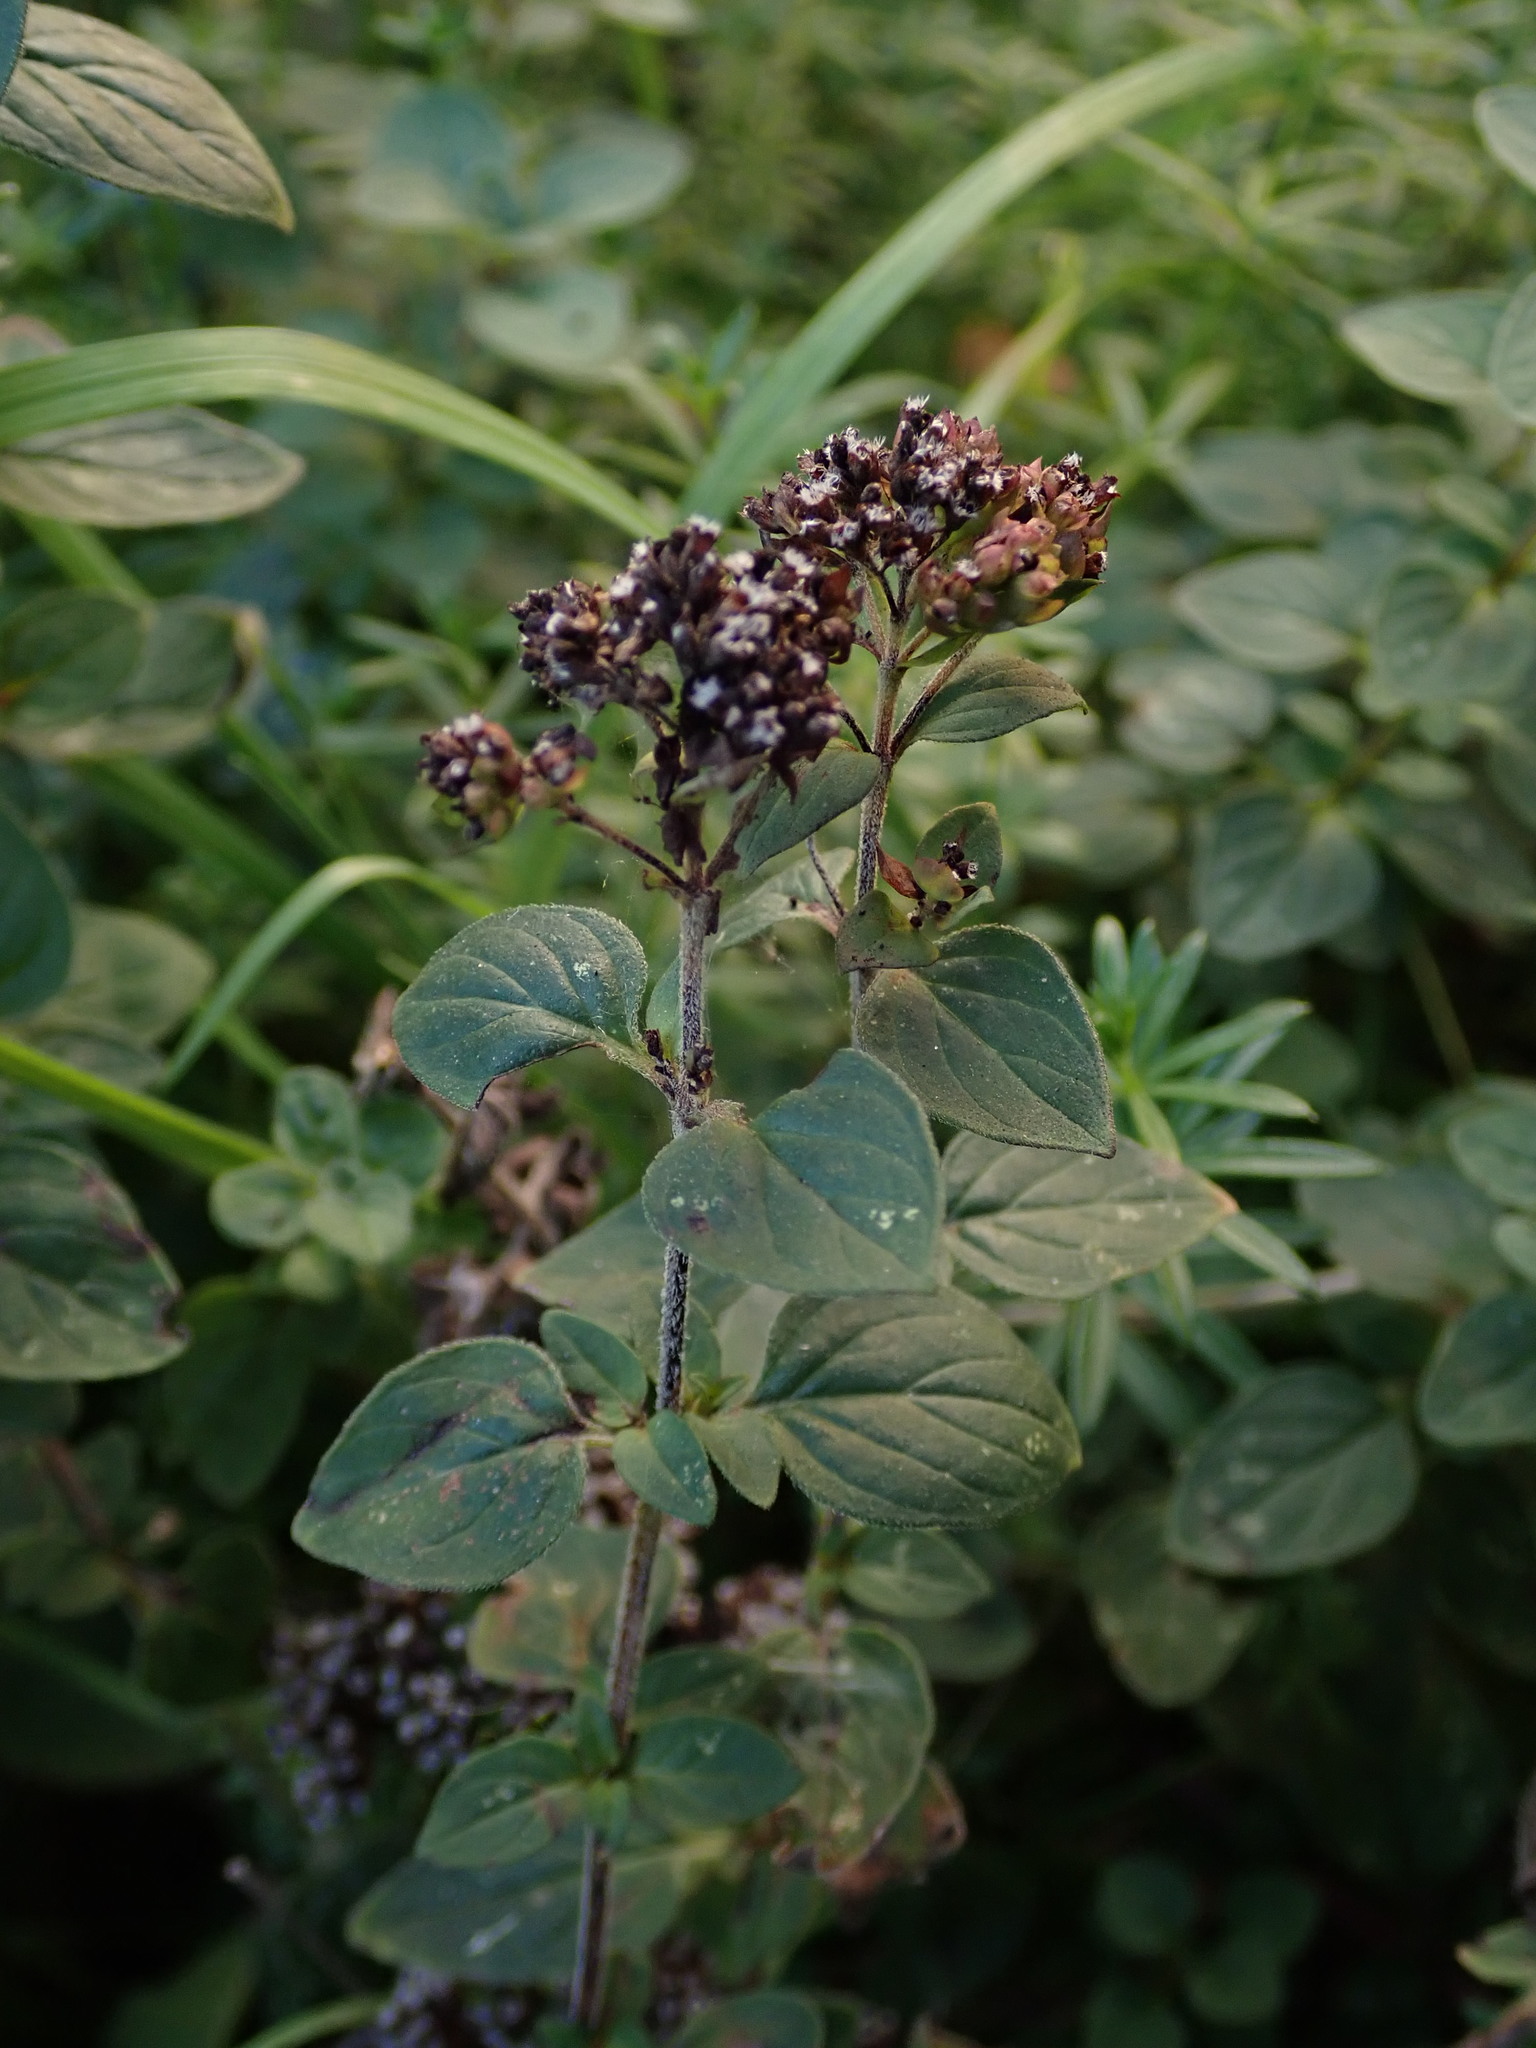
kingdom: Plantae
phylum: Tracheophyta
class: Magnoliopsida
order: Lamiales
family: Lamiaceae
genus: Origanum
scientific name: Origanum vulgare
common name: Wild marjoram
